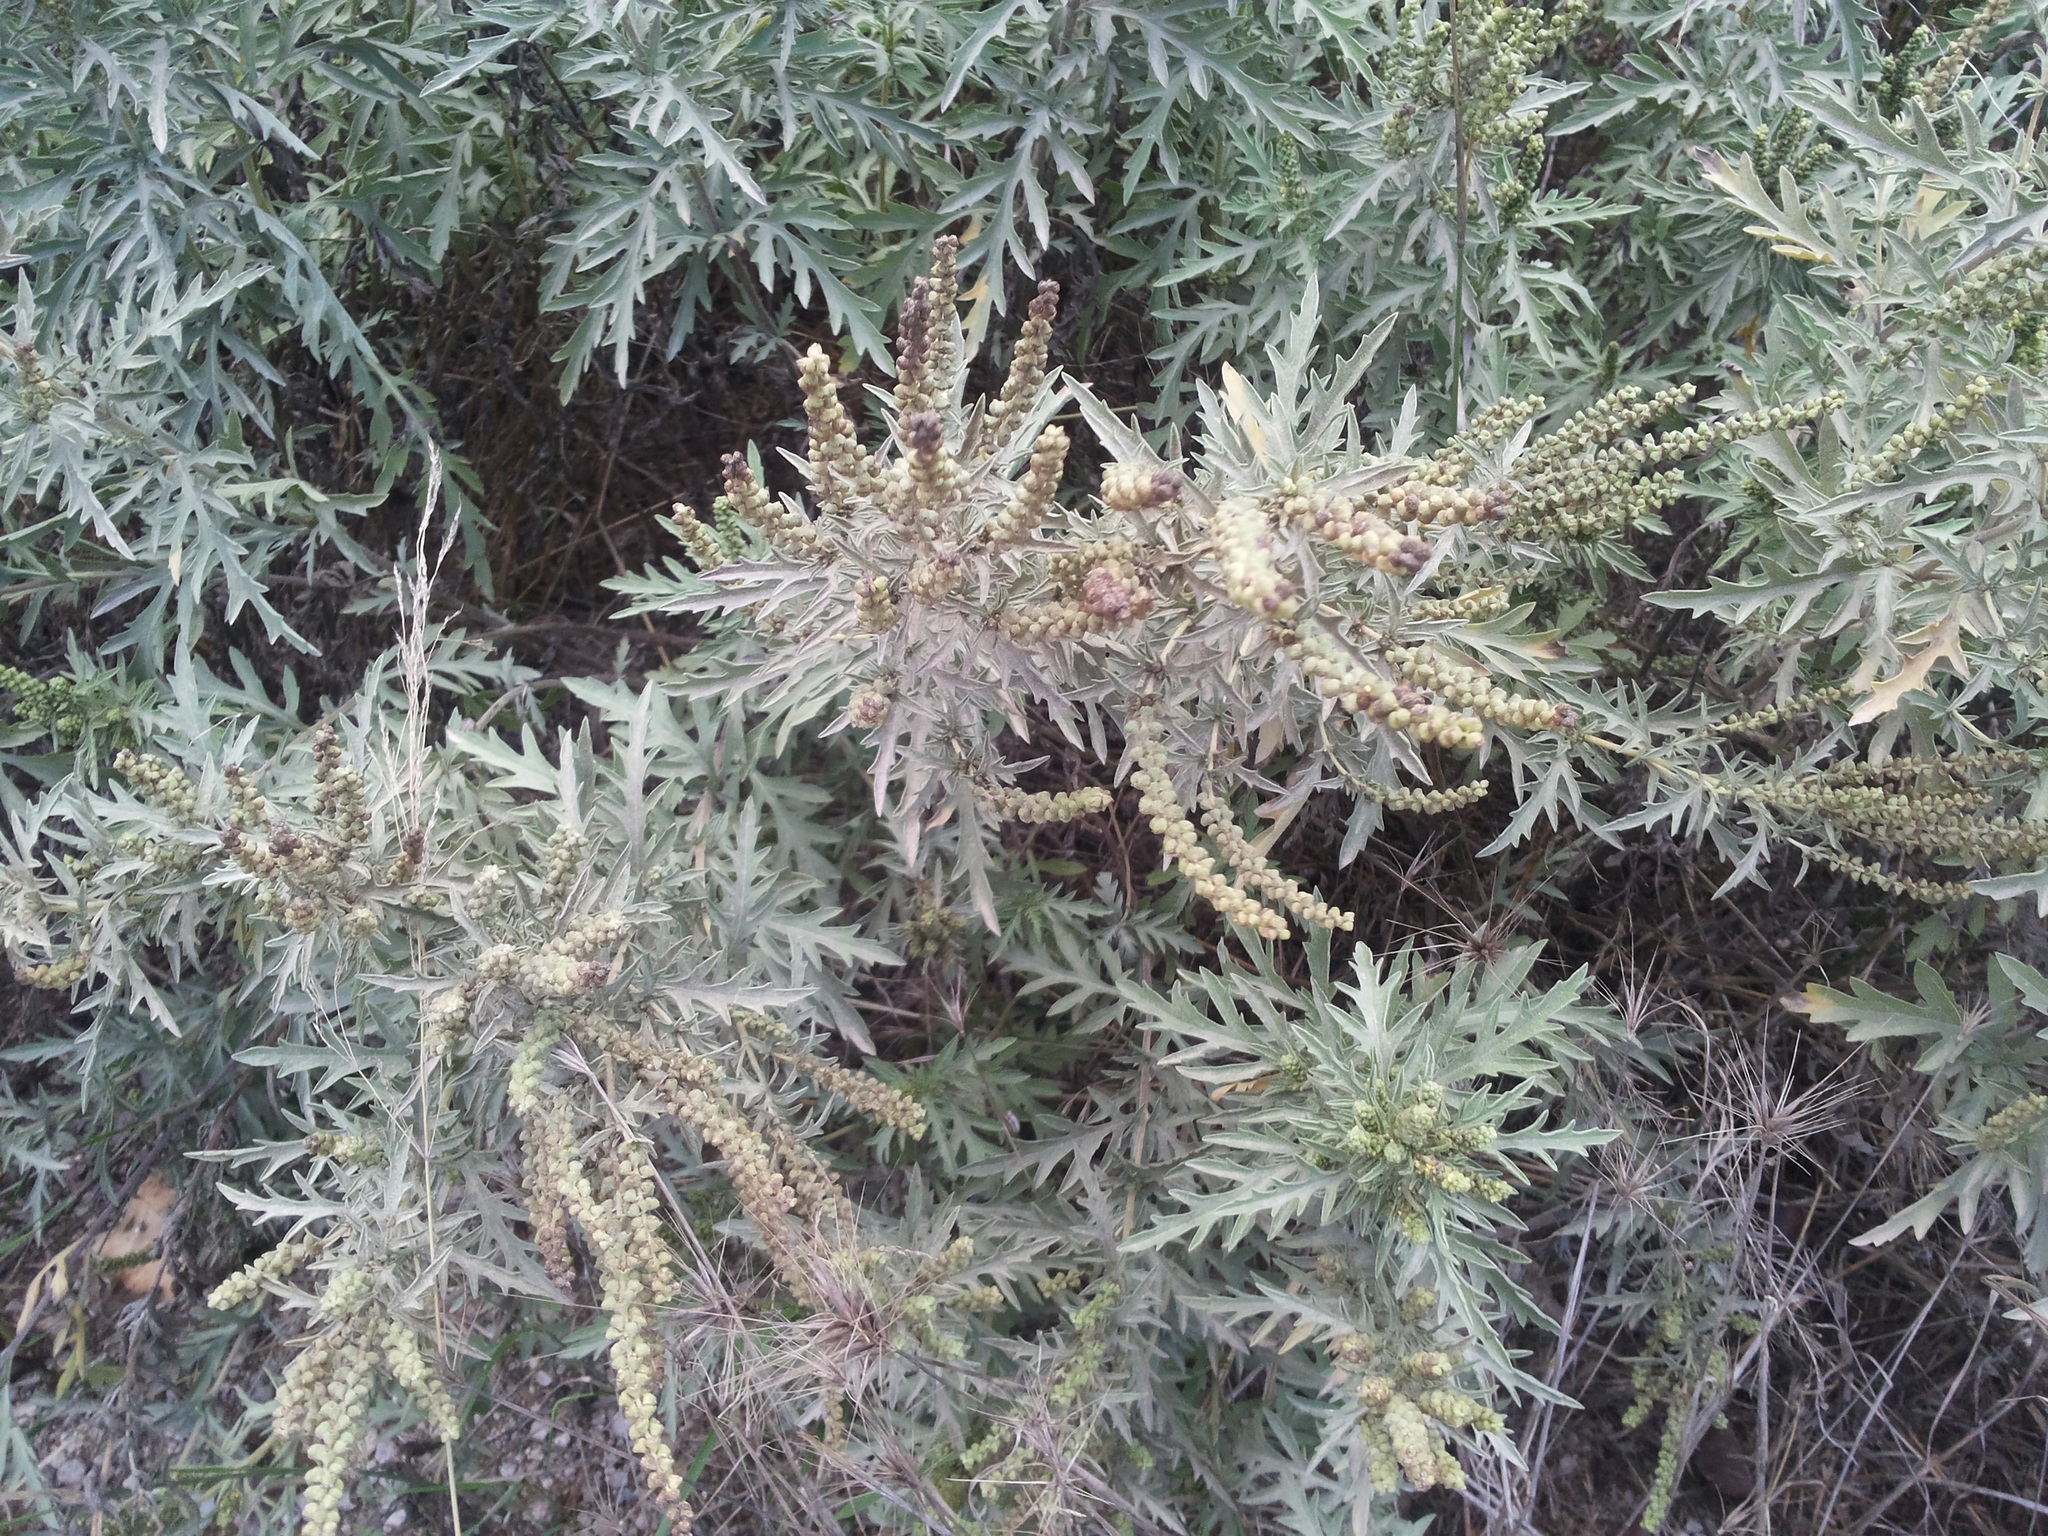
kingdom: Plantae
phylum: Tracheophyta
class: Magnoliopsida
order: Asterales
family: Asteraceae
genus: Ambrosia
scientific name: Ambrosia psilostachya
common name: Perennial ragweed
